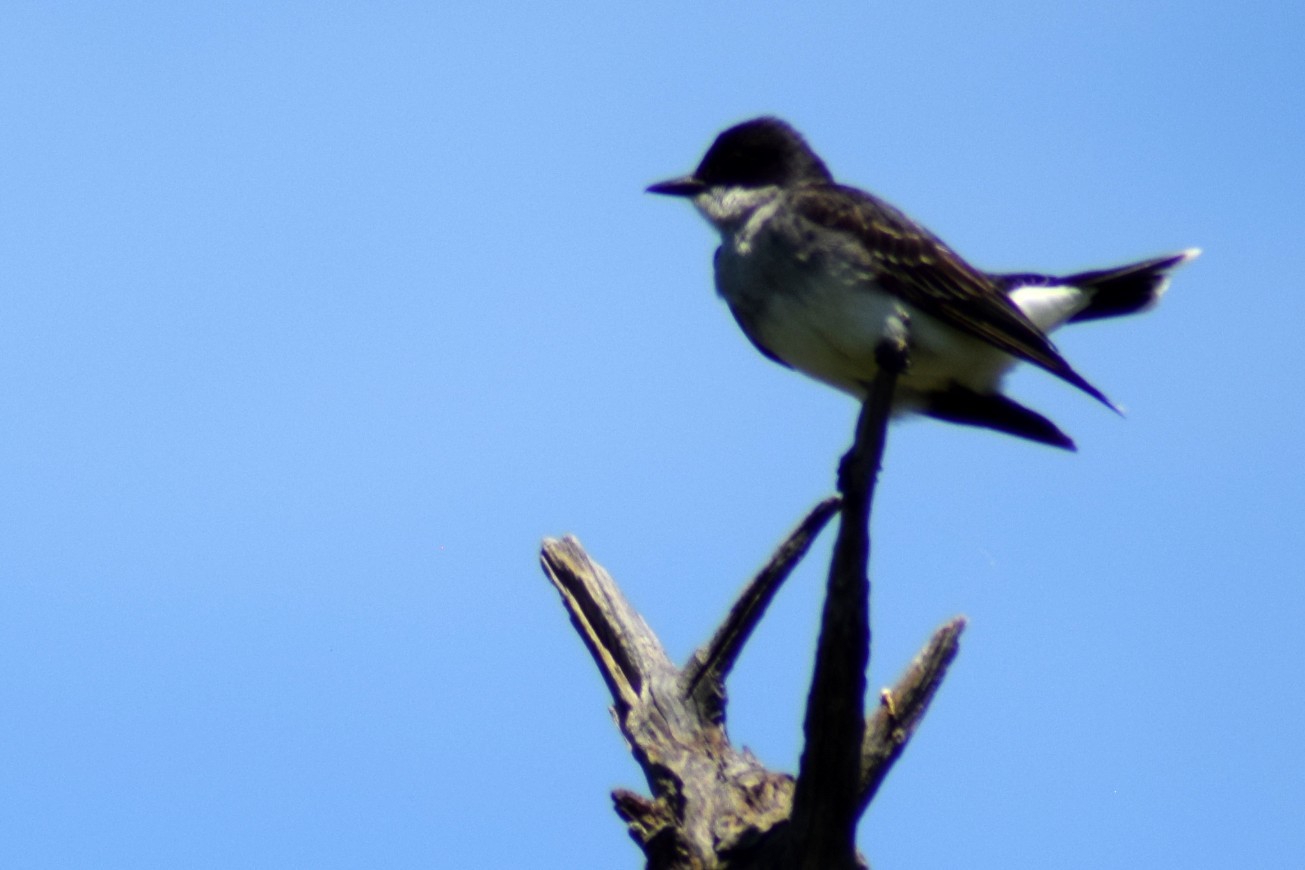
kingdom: Animalia
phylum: Chordata
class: Aves
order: Passeriformes
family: Tyrannidae
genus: Tyrannus
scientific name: Tyrannus tyrannus
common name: Eastern kingbird
